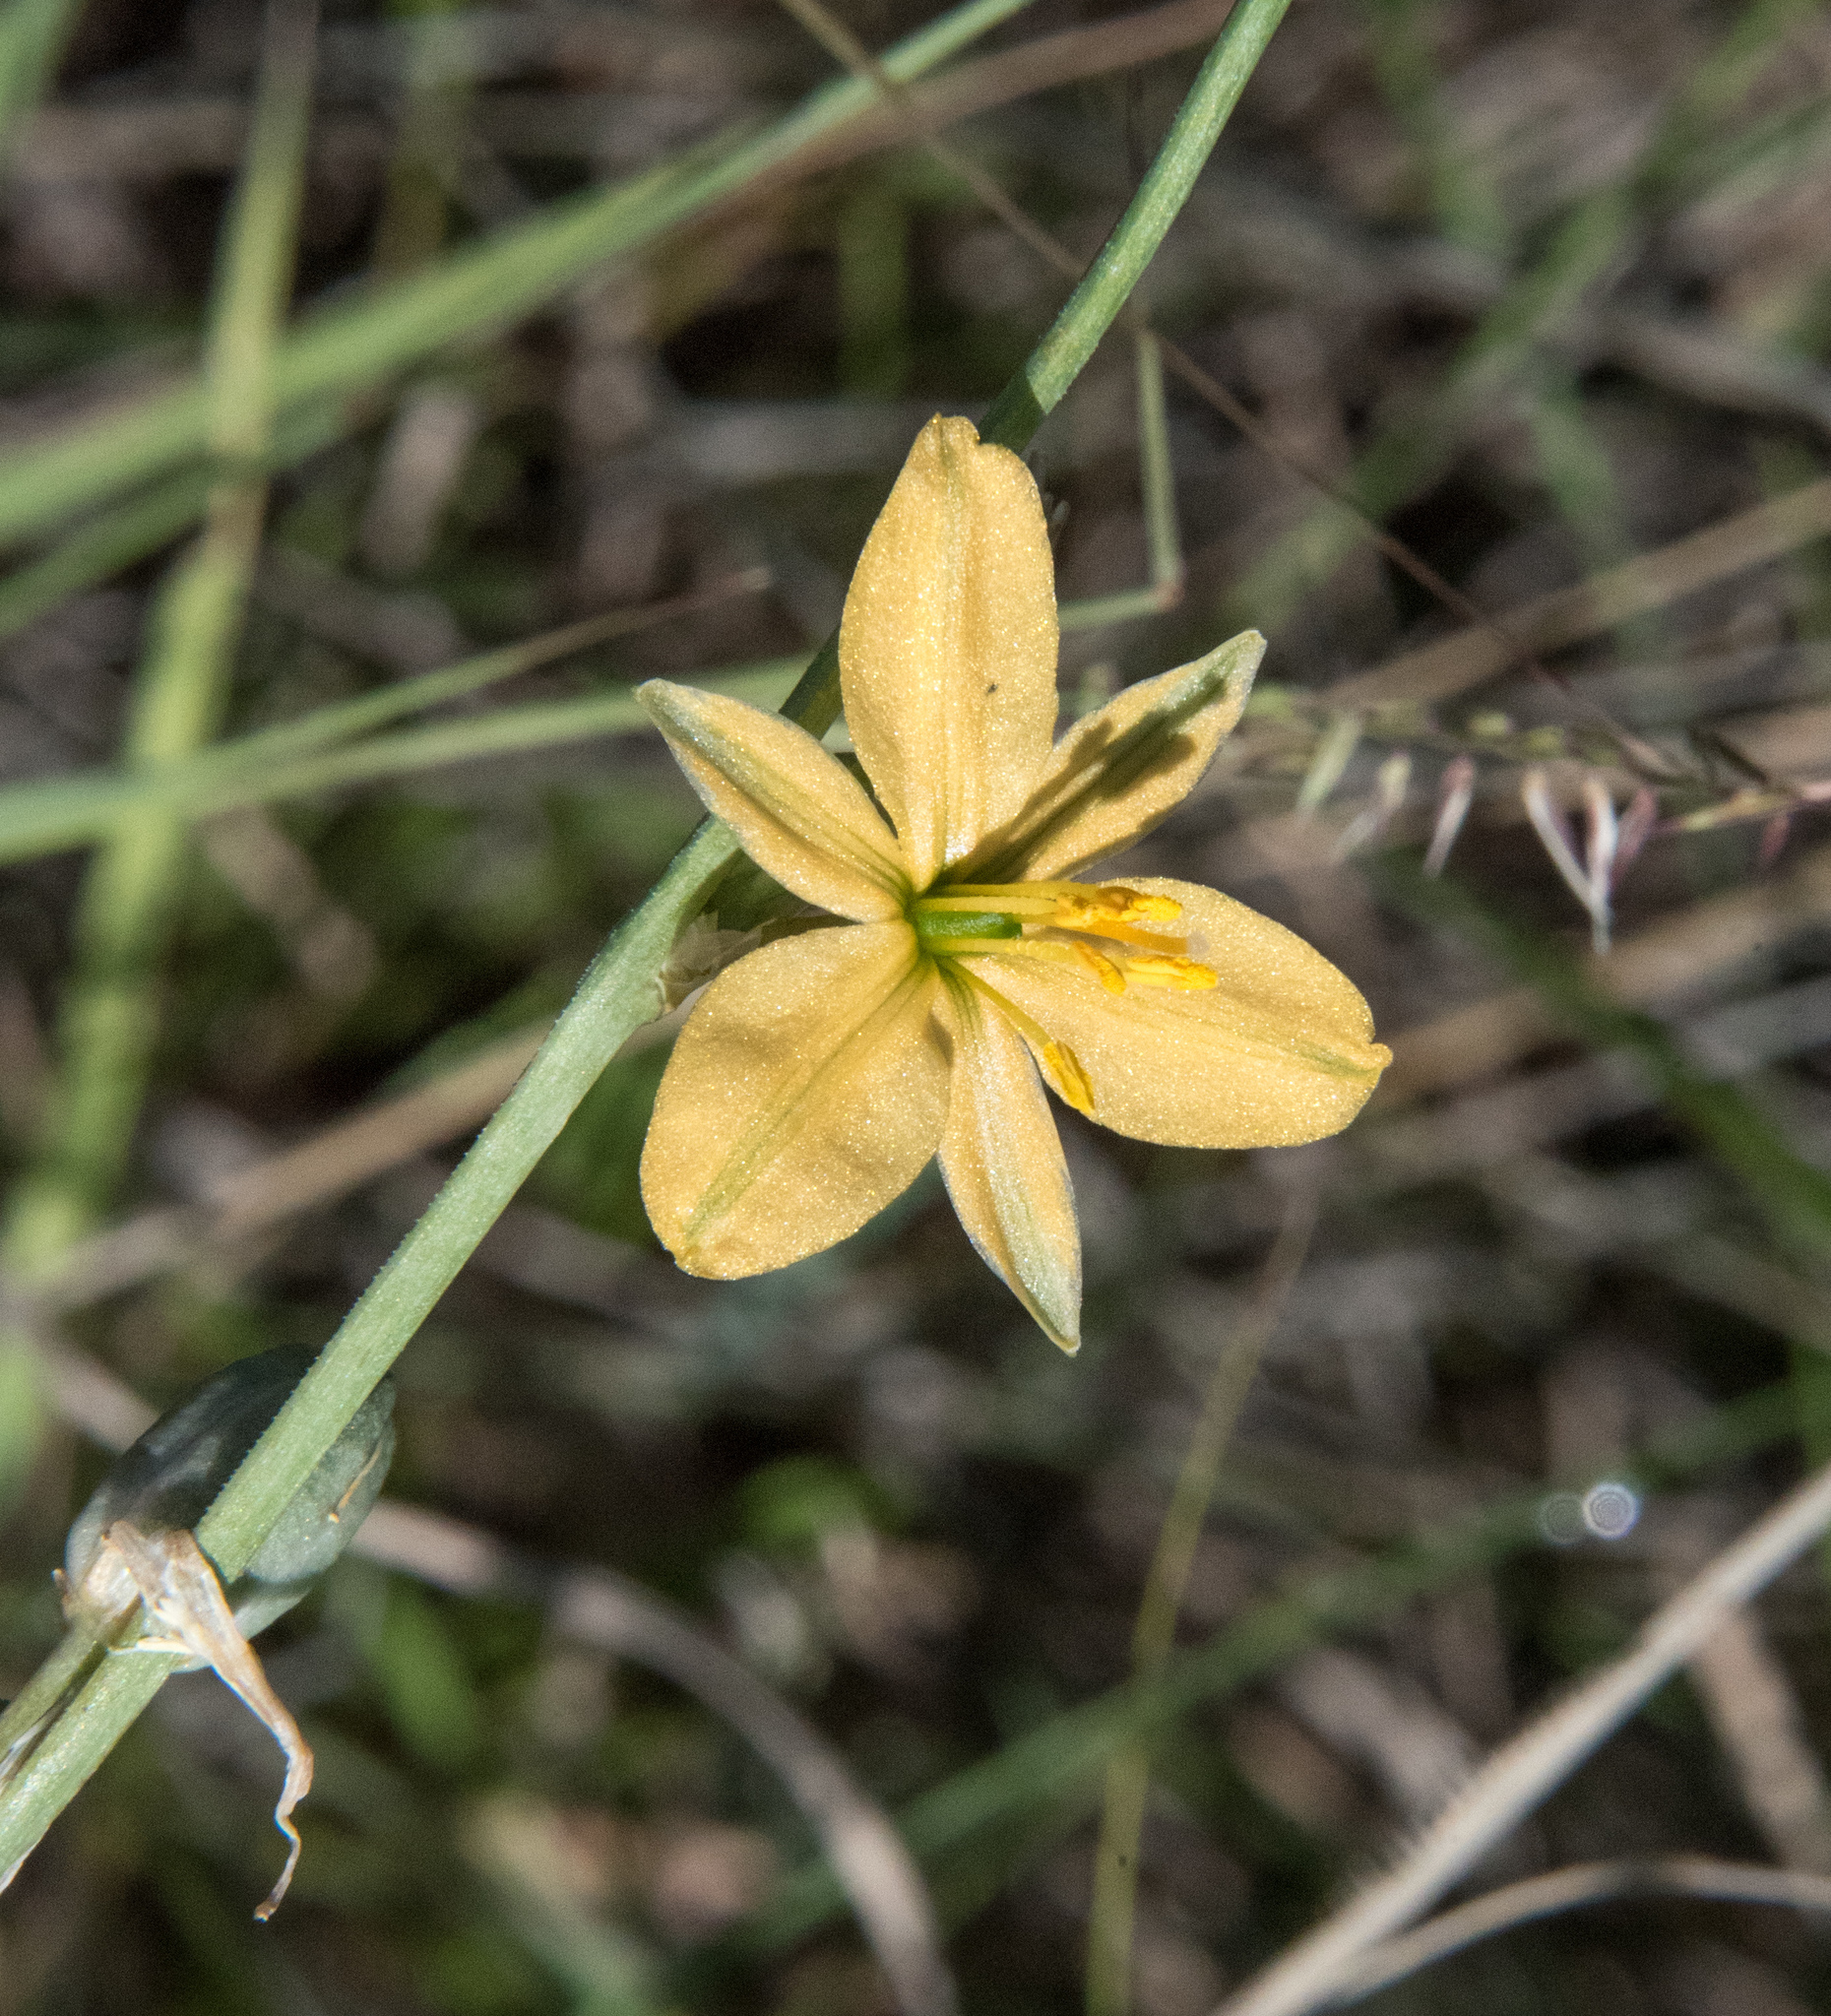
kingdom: Plantae
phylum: Tracheophyta
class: Liliopsida
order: Asparagales
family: Asparagaceae
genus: Echeandia
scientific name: Echeandia flavescens
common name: Amberlily
